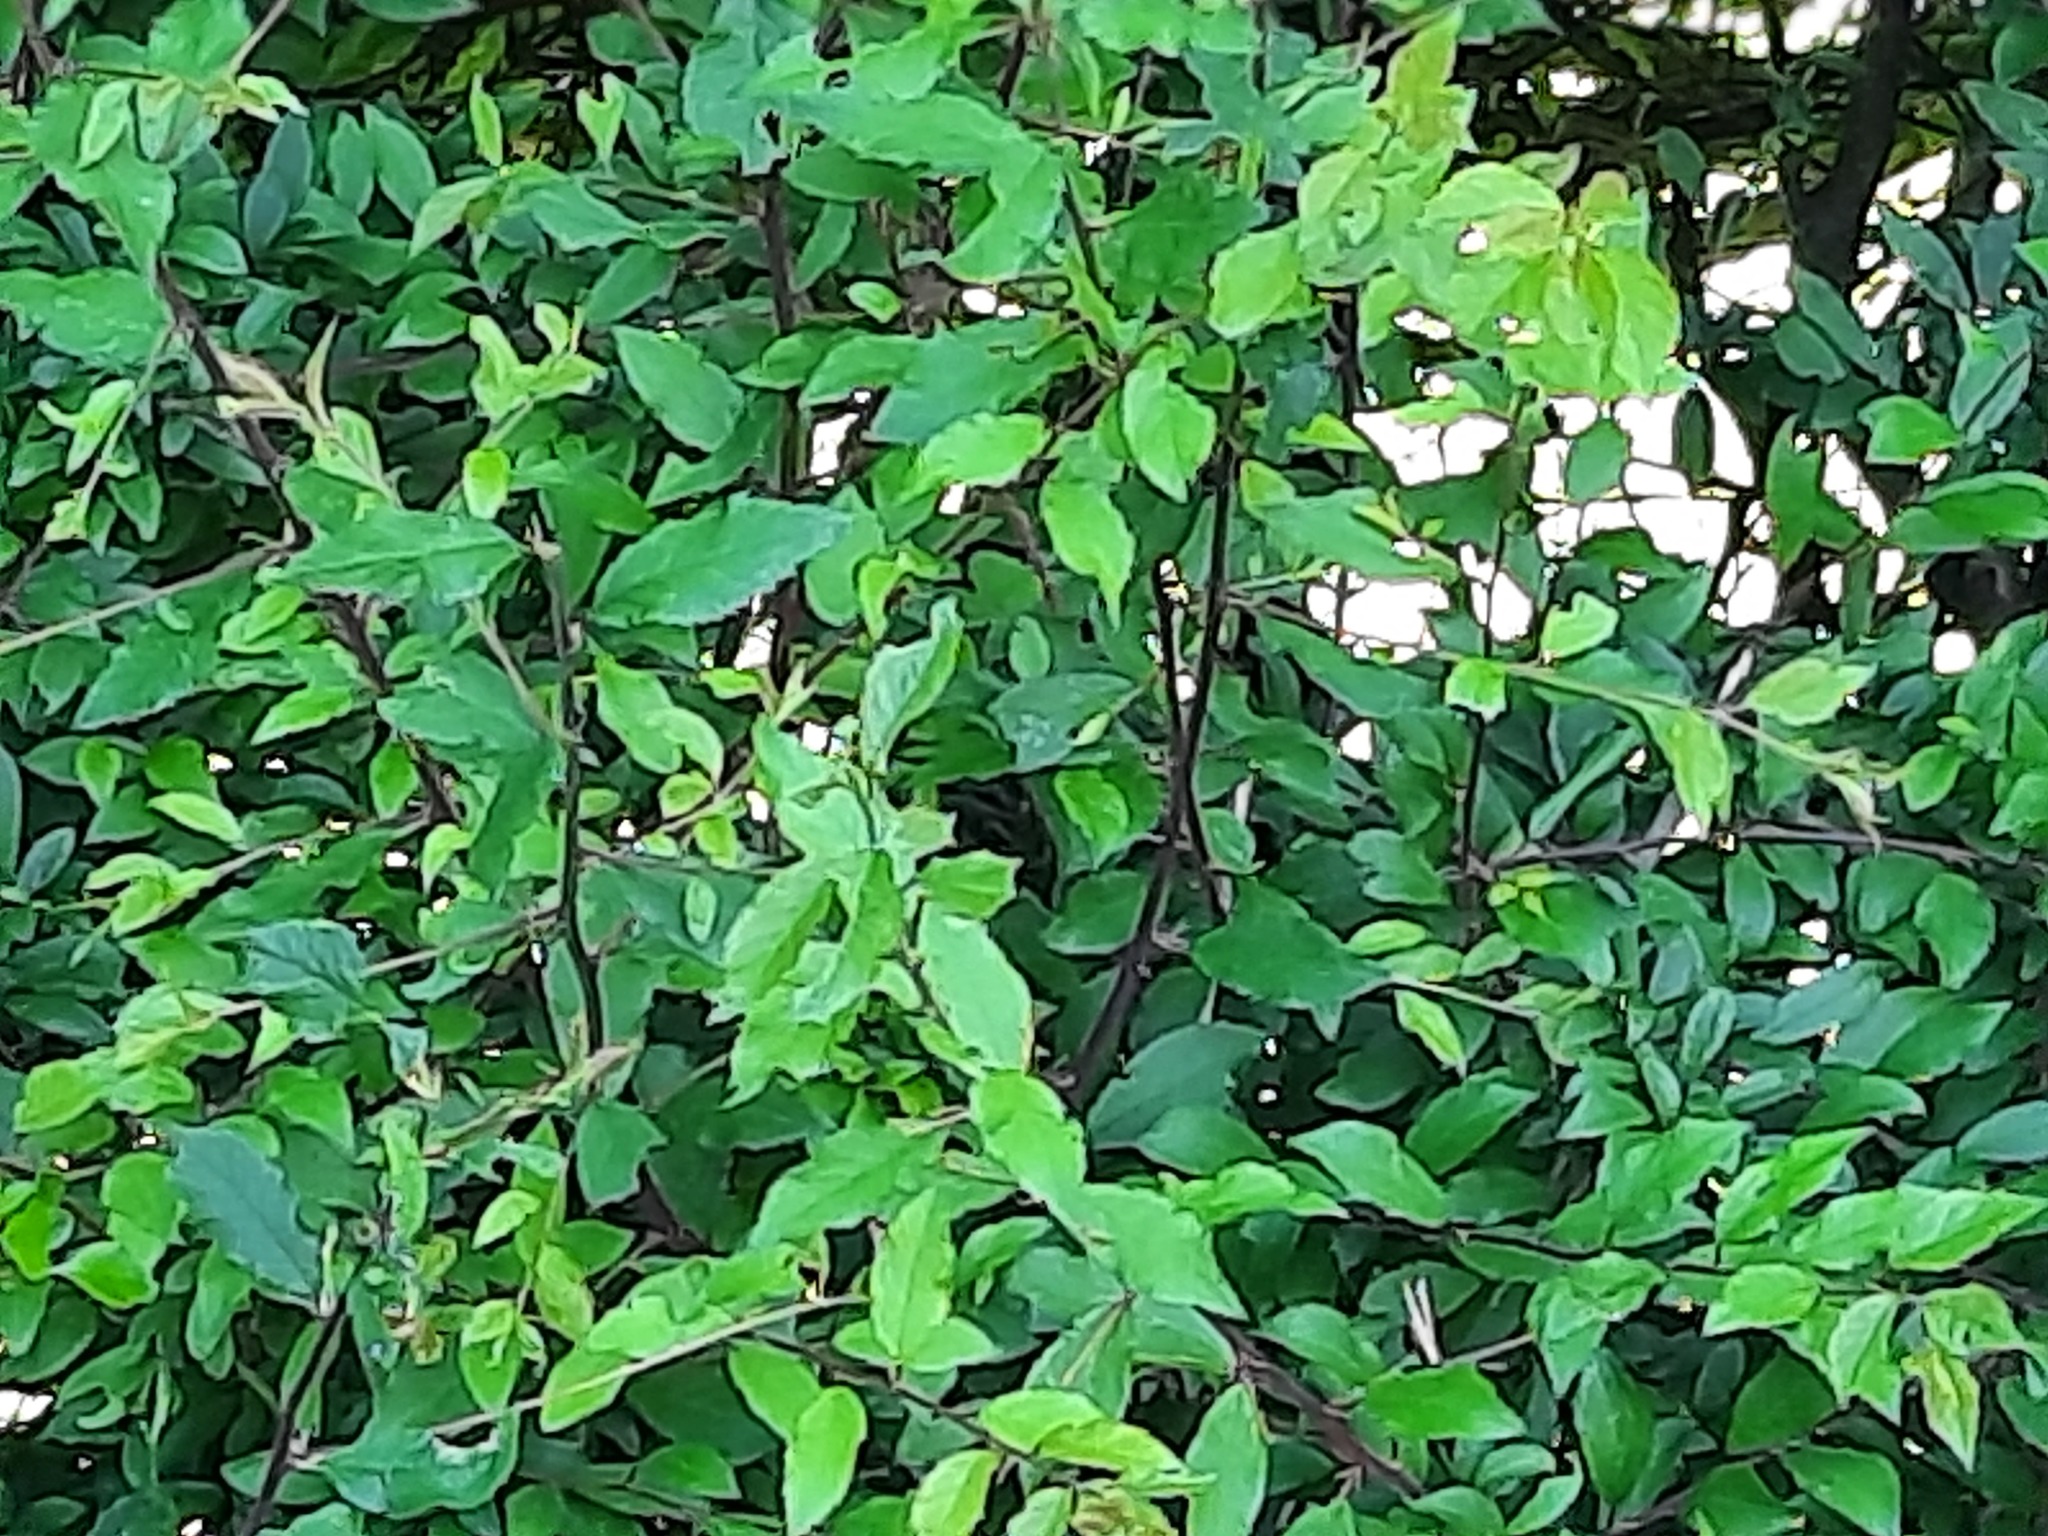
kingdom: Plantae
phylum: Tracheophyta
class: Magnoliopsida
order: Rosales
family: Rosaceae
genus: Prunus
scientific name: Prunus spinosa
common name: Blackthorn
